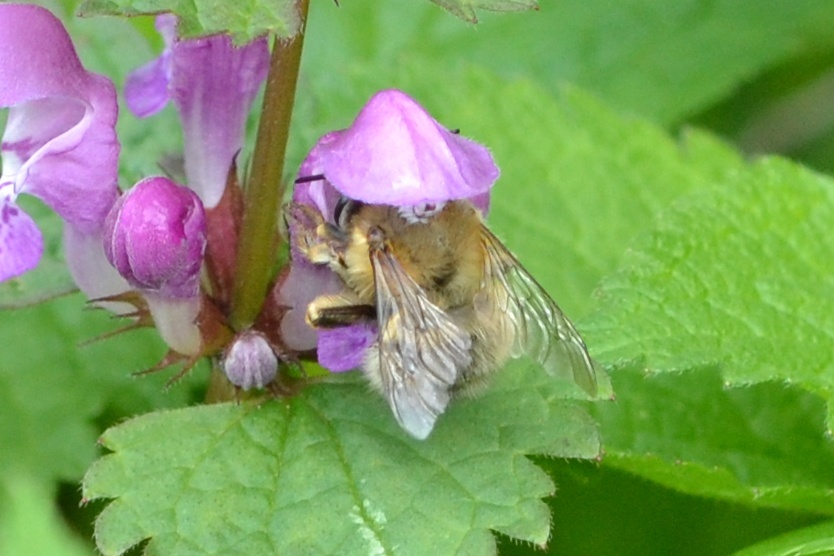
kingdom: Animalia
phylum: Arthropoda
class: Insecta
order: Hymenoptera
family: Apidae
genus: Anthophora
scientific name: Anthophora plumipes
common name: Hairy-footed flower bee
